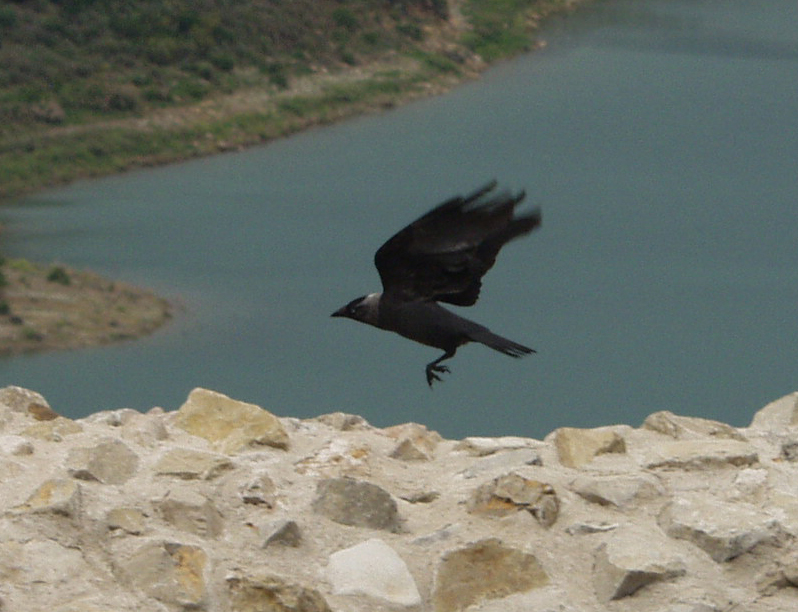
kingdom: Animalia
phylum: Chordata
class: Aves
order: Passeriformes
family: Corvidae
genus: Coloeus
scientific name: Coloeus monedula
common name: Western jackdaw
